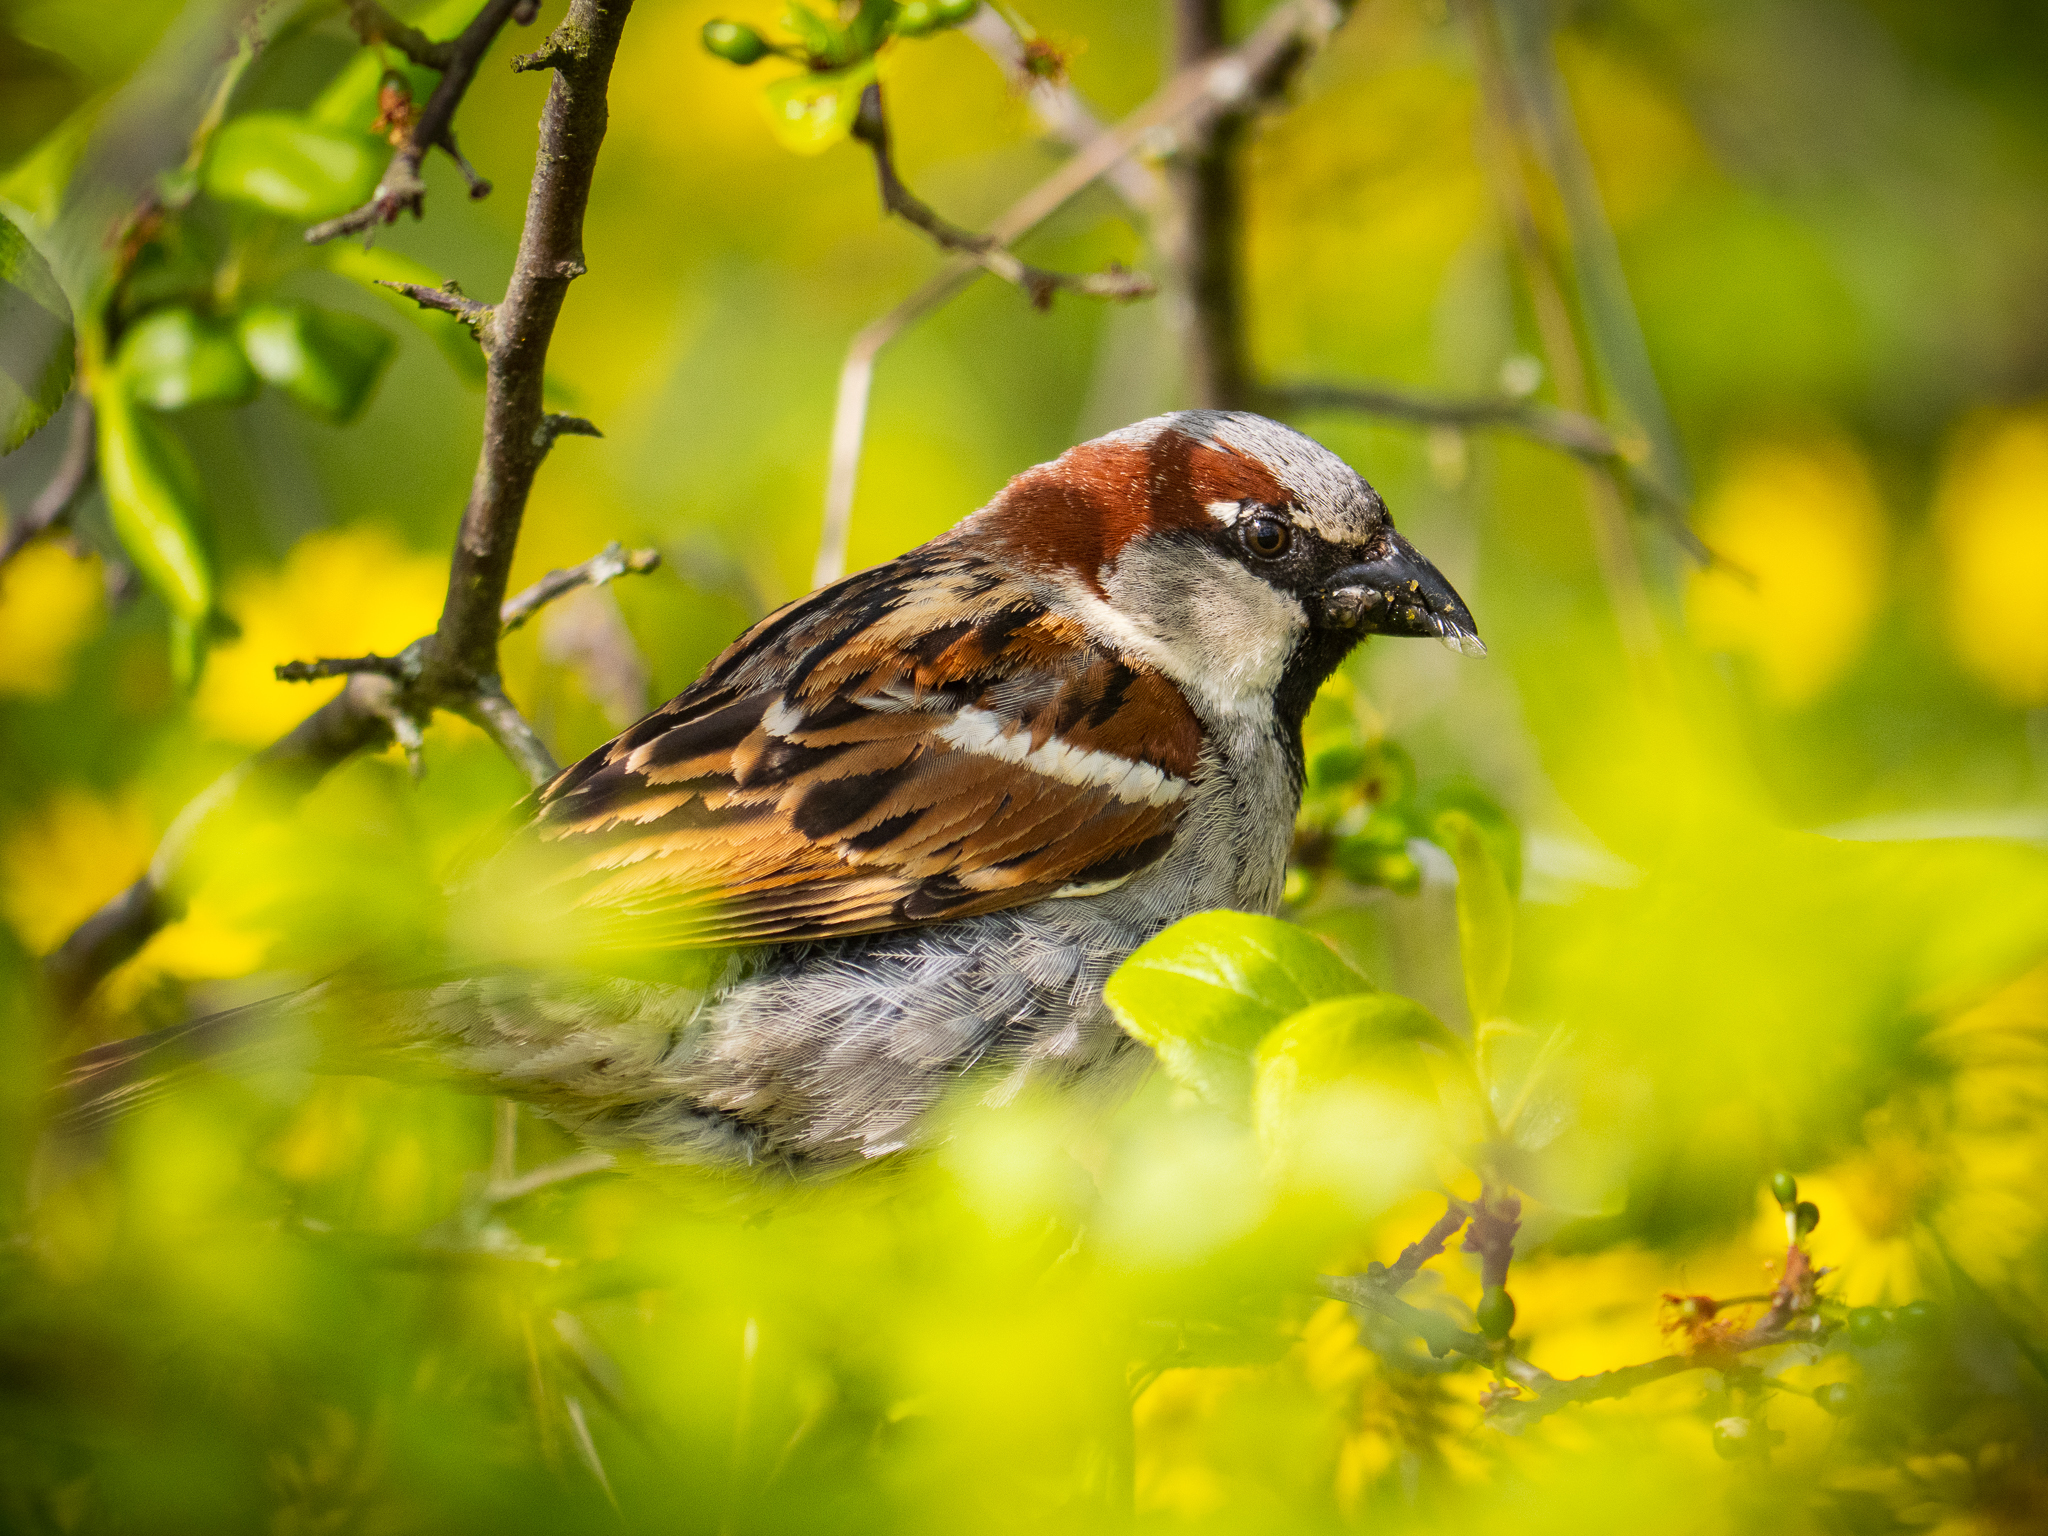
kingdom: Animalia
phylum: Chordata
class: Aves
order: Passeriformes
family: Passeridae
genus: Passer
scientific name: Passer domesticus
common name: House sparrow
